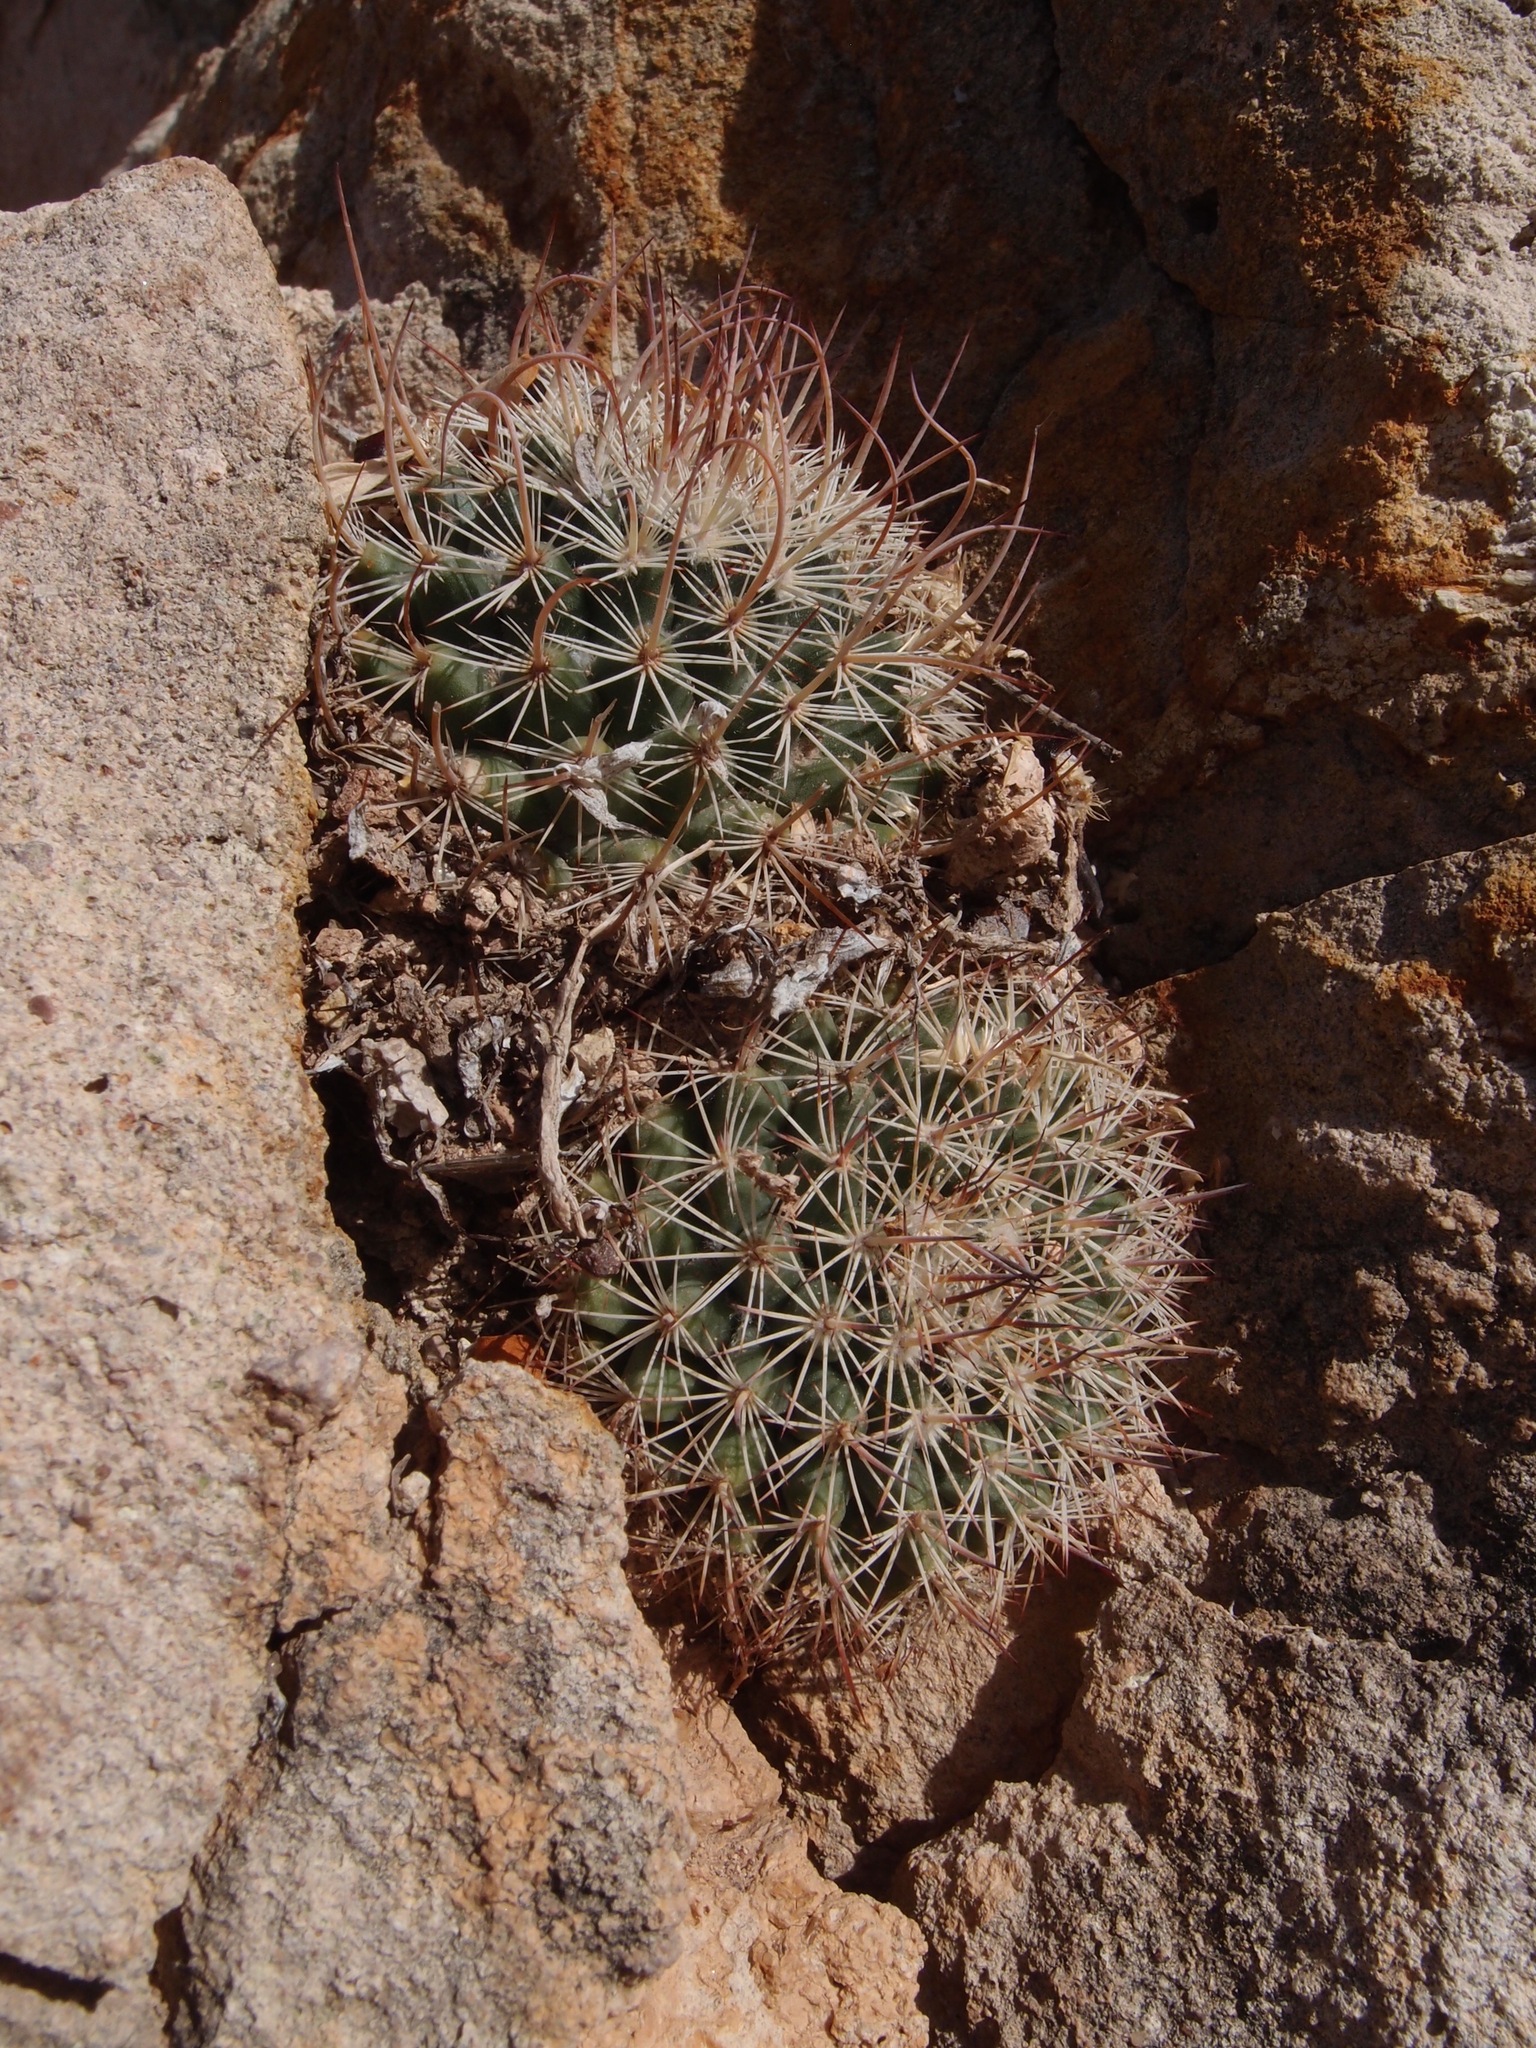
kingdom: Plantae
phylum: Tracheophyta
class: Magnoliopsida
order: Caryophyllales
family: Cactaceae
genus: Mammillaria
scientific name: Mammillaria johnstonii
